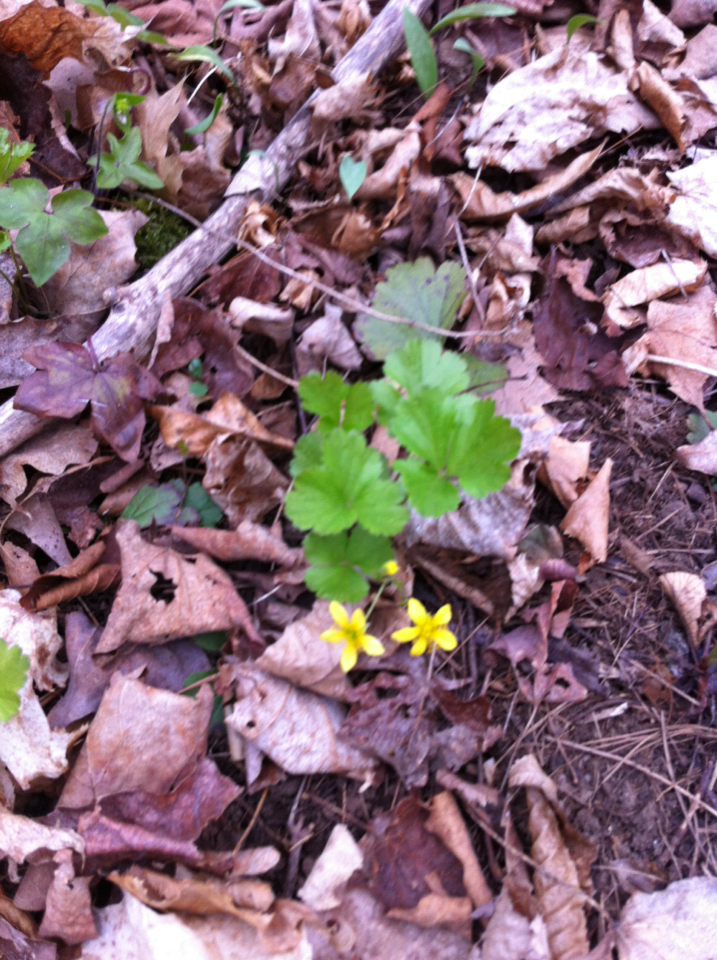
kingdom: Plantae
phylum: Tracheophyta
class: Magnoliopsida
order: Rosales
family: Rosaceae
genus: Geum
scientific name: Geum fragarioides
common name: Appalachian barren strawberry
